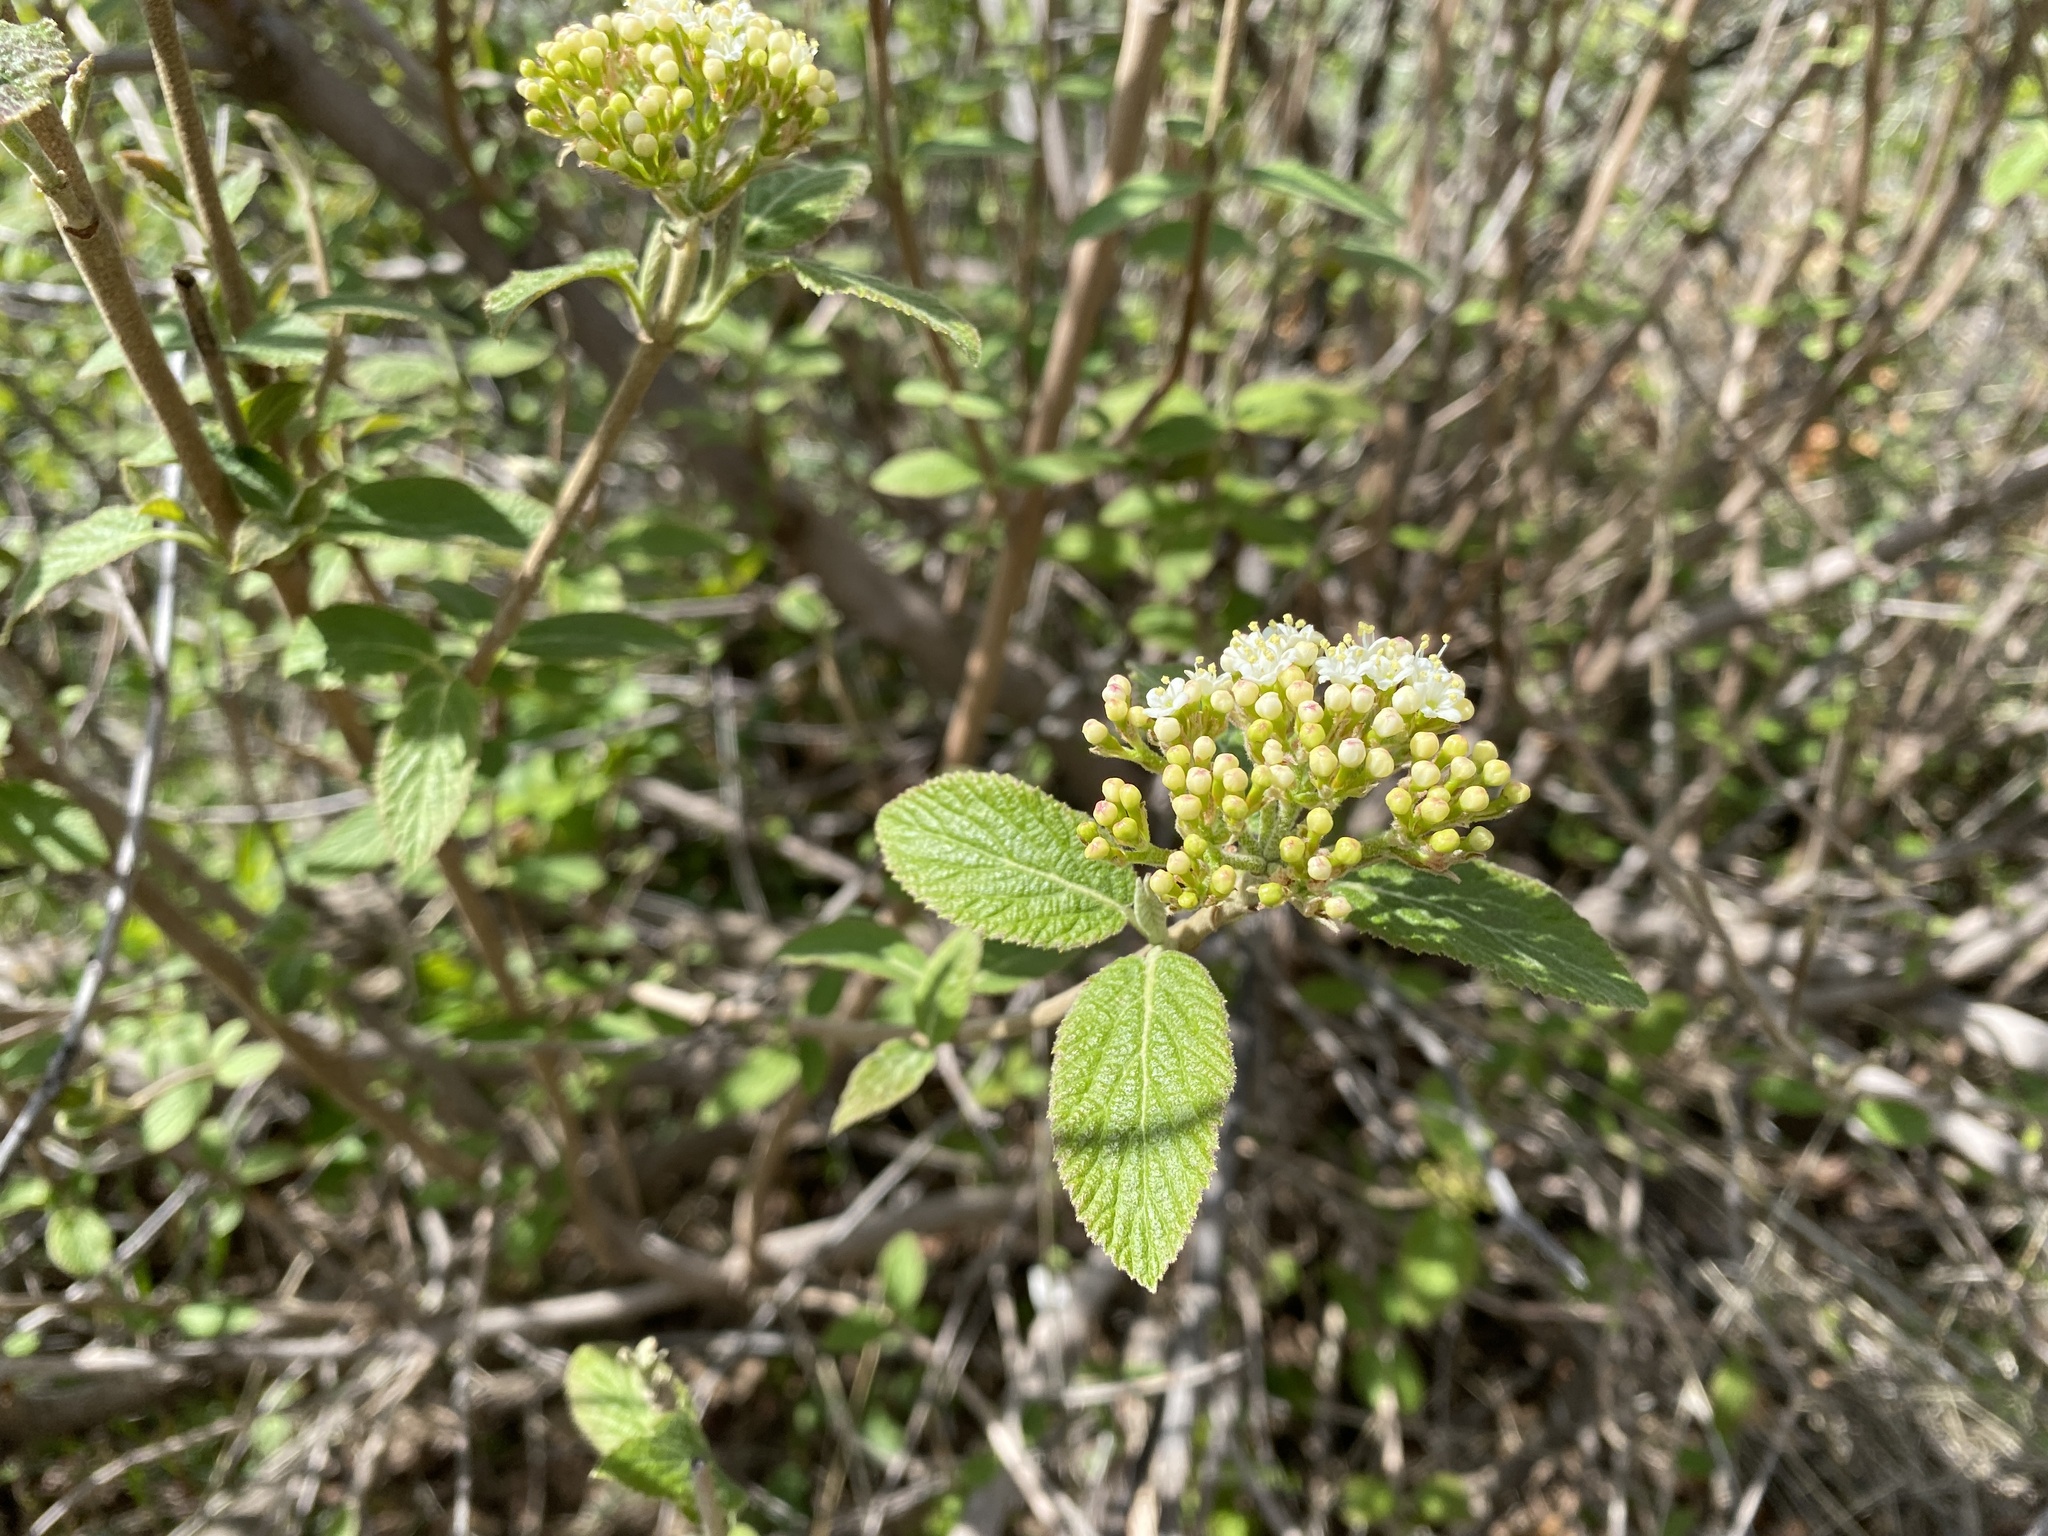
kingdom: Plantae
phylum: Tracheophyta
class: Magnoliopsida
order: Dipsacales
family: Viburnaceae
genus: Viburnum
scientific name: Viburnum lantana
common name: Wayfaring tree
